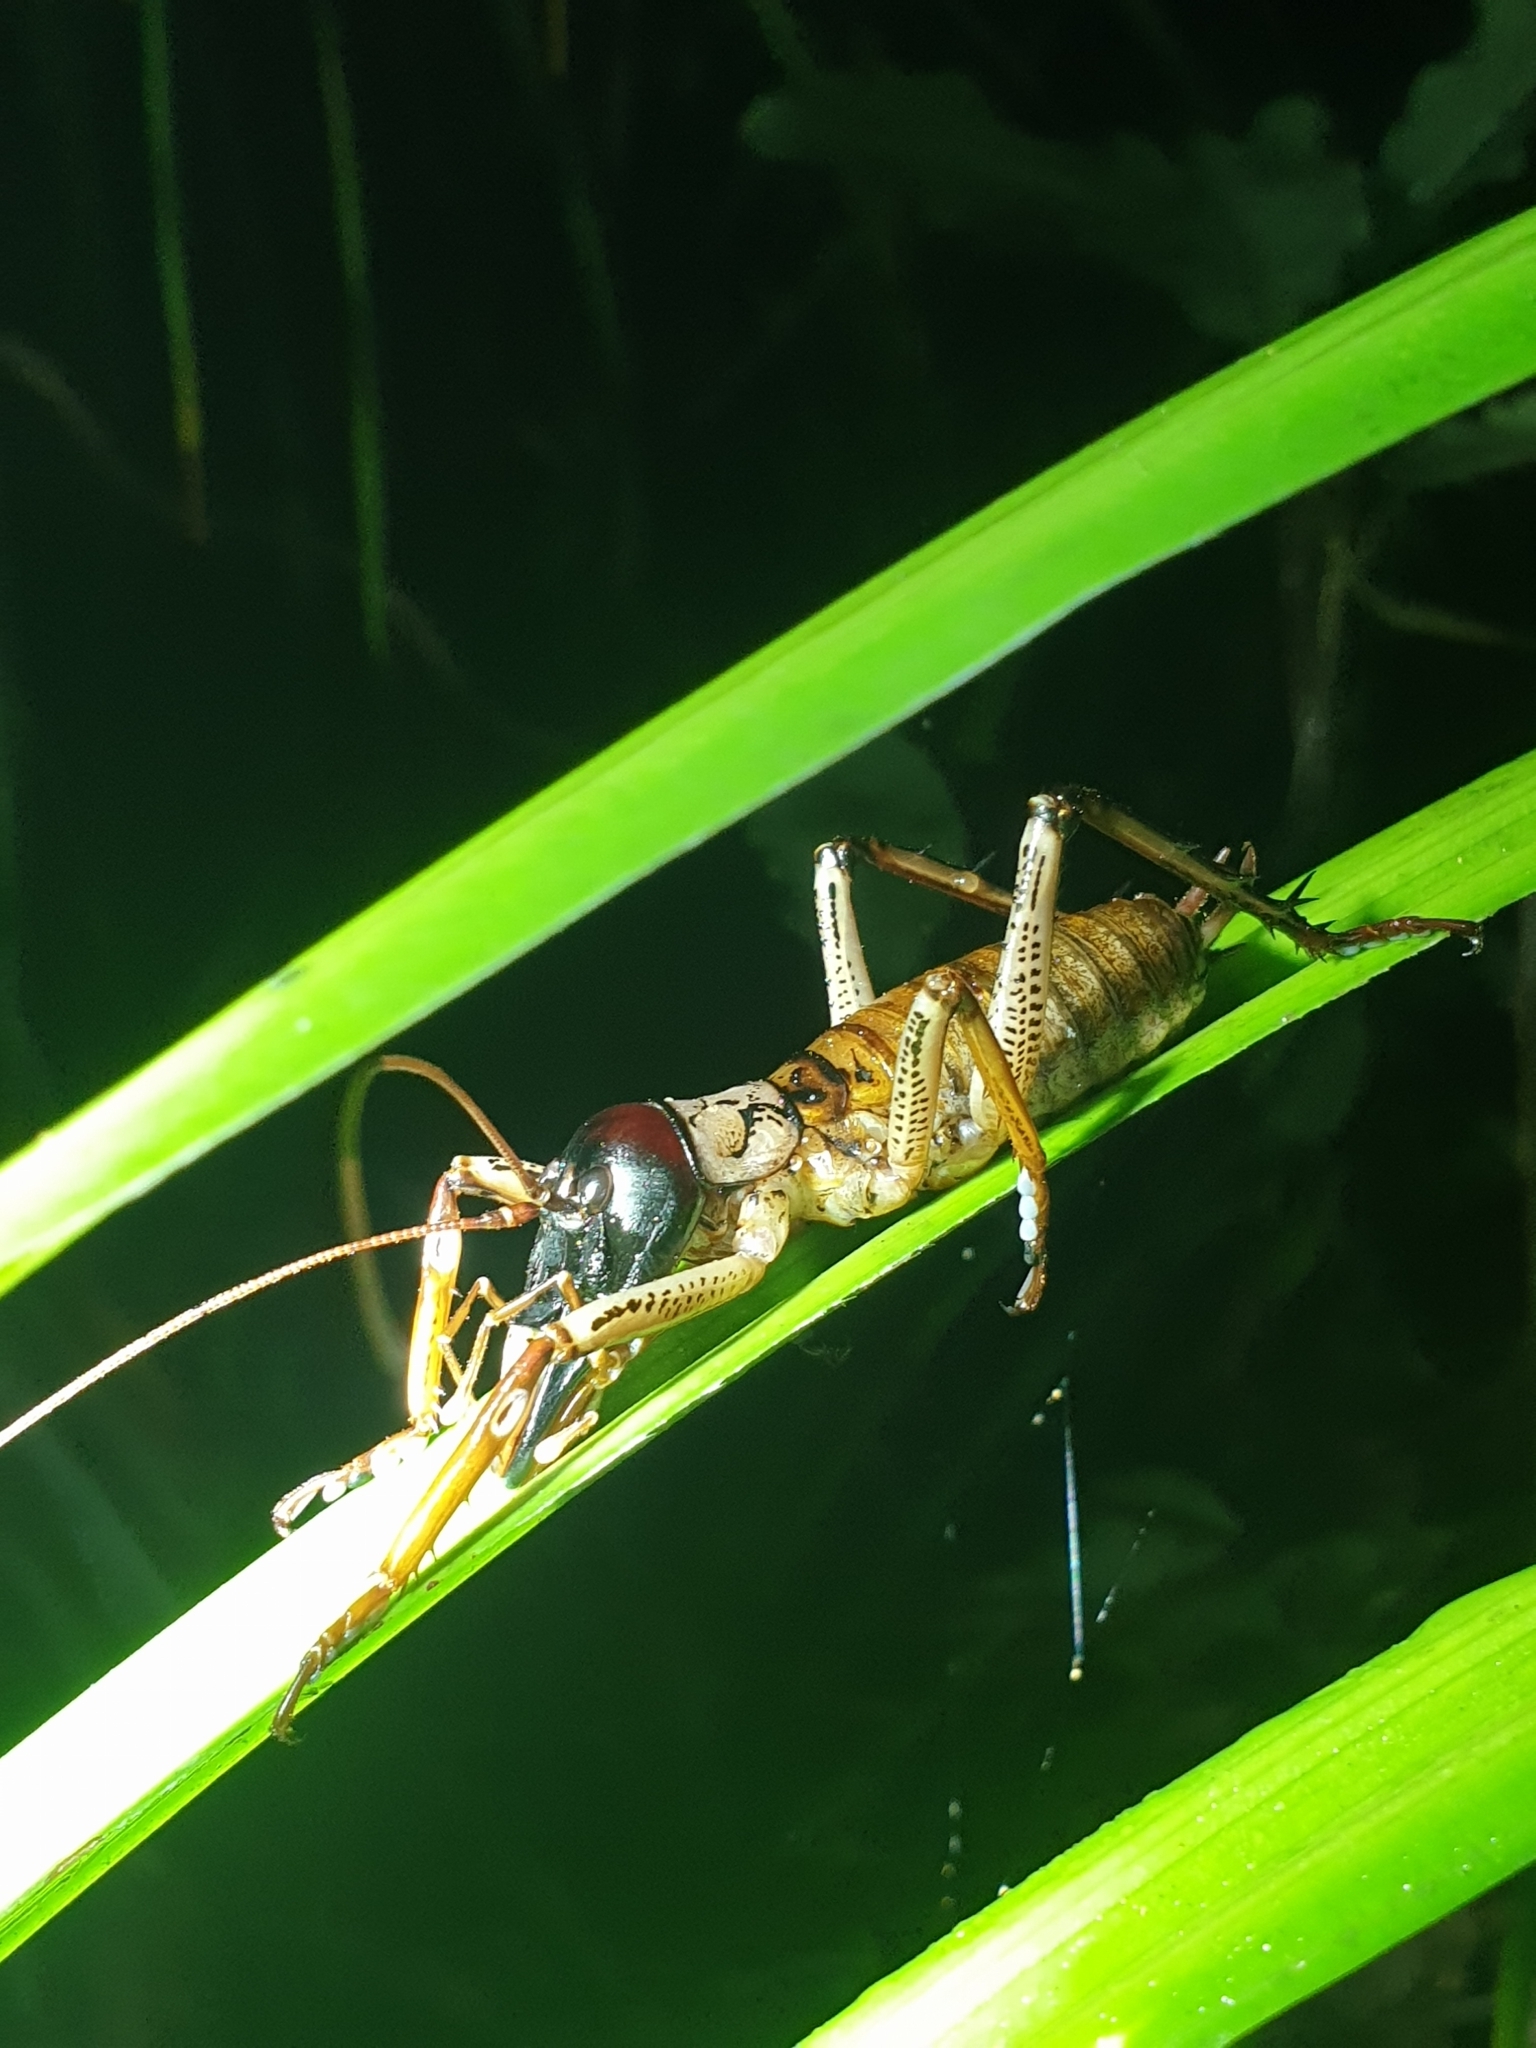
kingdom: Animalia
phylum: Arthropoda
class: Insecta
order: Orthoptera
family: Anostostomatidae
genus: Hemideina
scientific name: Hemideina thoracica
